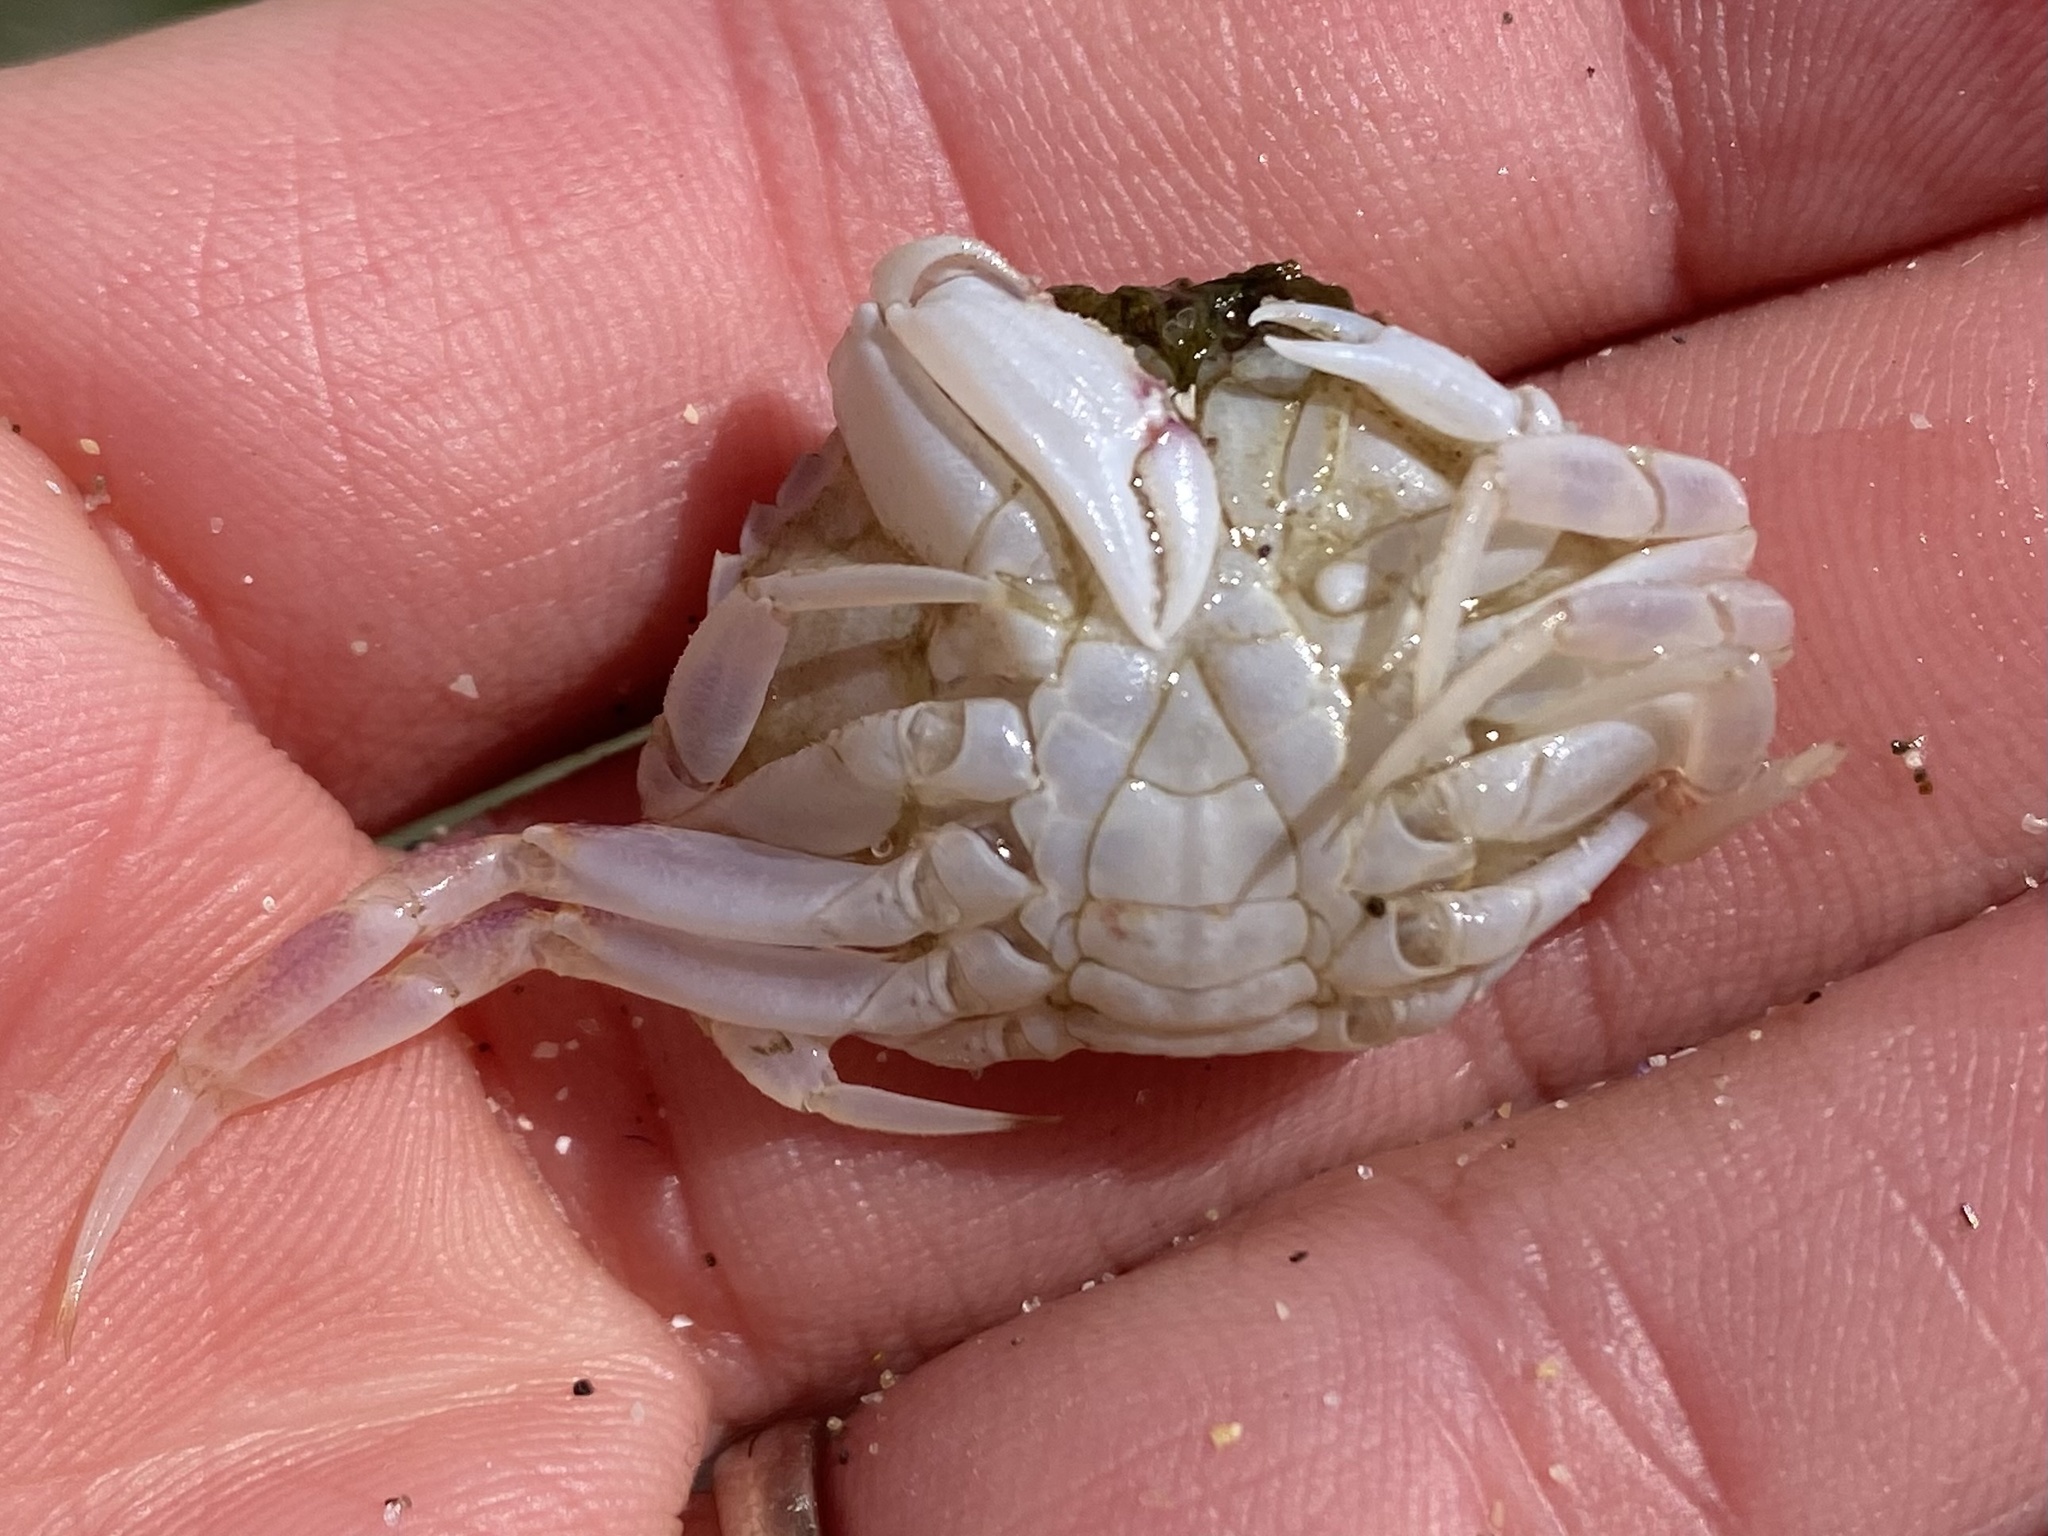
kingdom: Animalia
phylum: Arthropoda
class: Malacostraca
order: Decapoda
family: Cancridae
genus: Metacarcinus
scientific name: Metacarcinus gracilis
